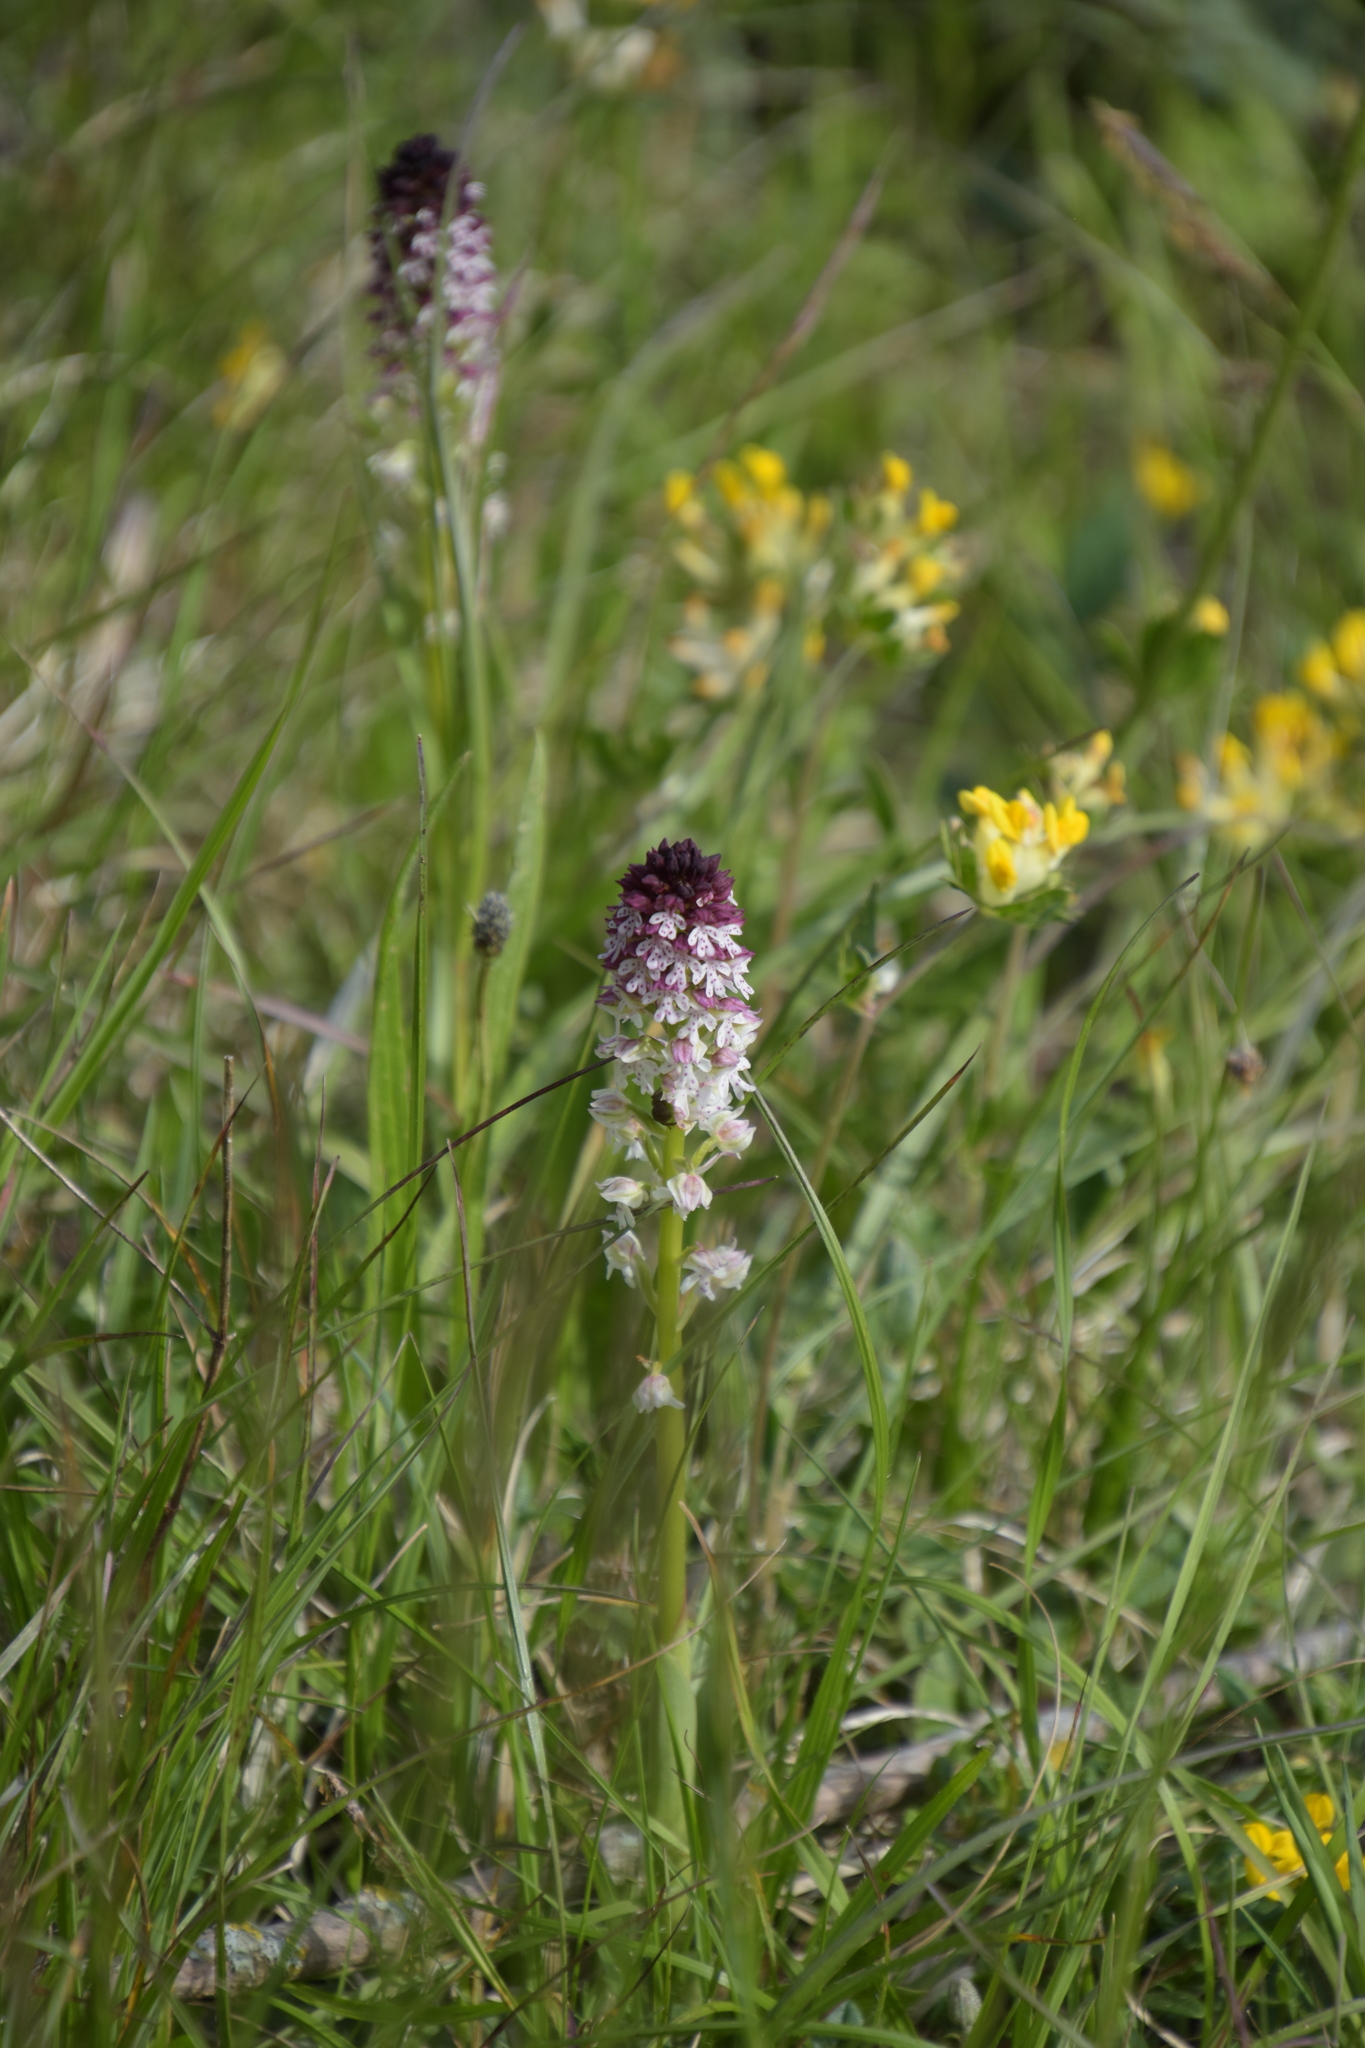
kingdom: Plantae
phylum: Tracheophyta
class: Liliopsida
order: Asparagales
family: Orchidaceae
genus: Neotinea
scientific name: Neotinea ustulata
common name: Burnt orchid
